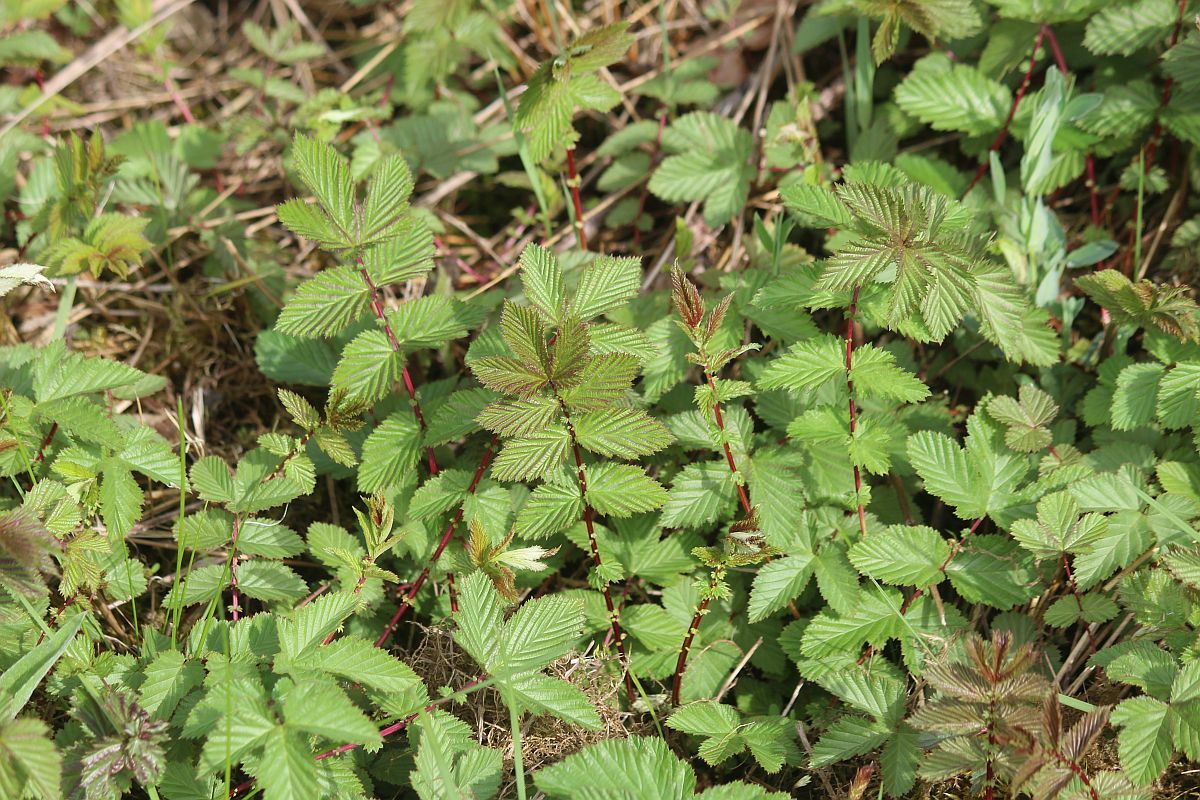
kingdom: Plantae
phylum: Tracheophyta
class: Magnoliopsida
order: Rosales
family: Rosaceae
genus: Filipendula
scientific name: Filipendula ulmaria
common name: Meadowsweet
